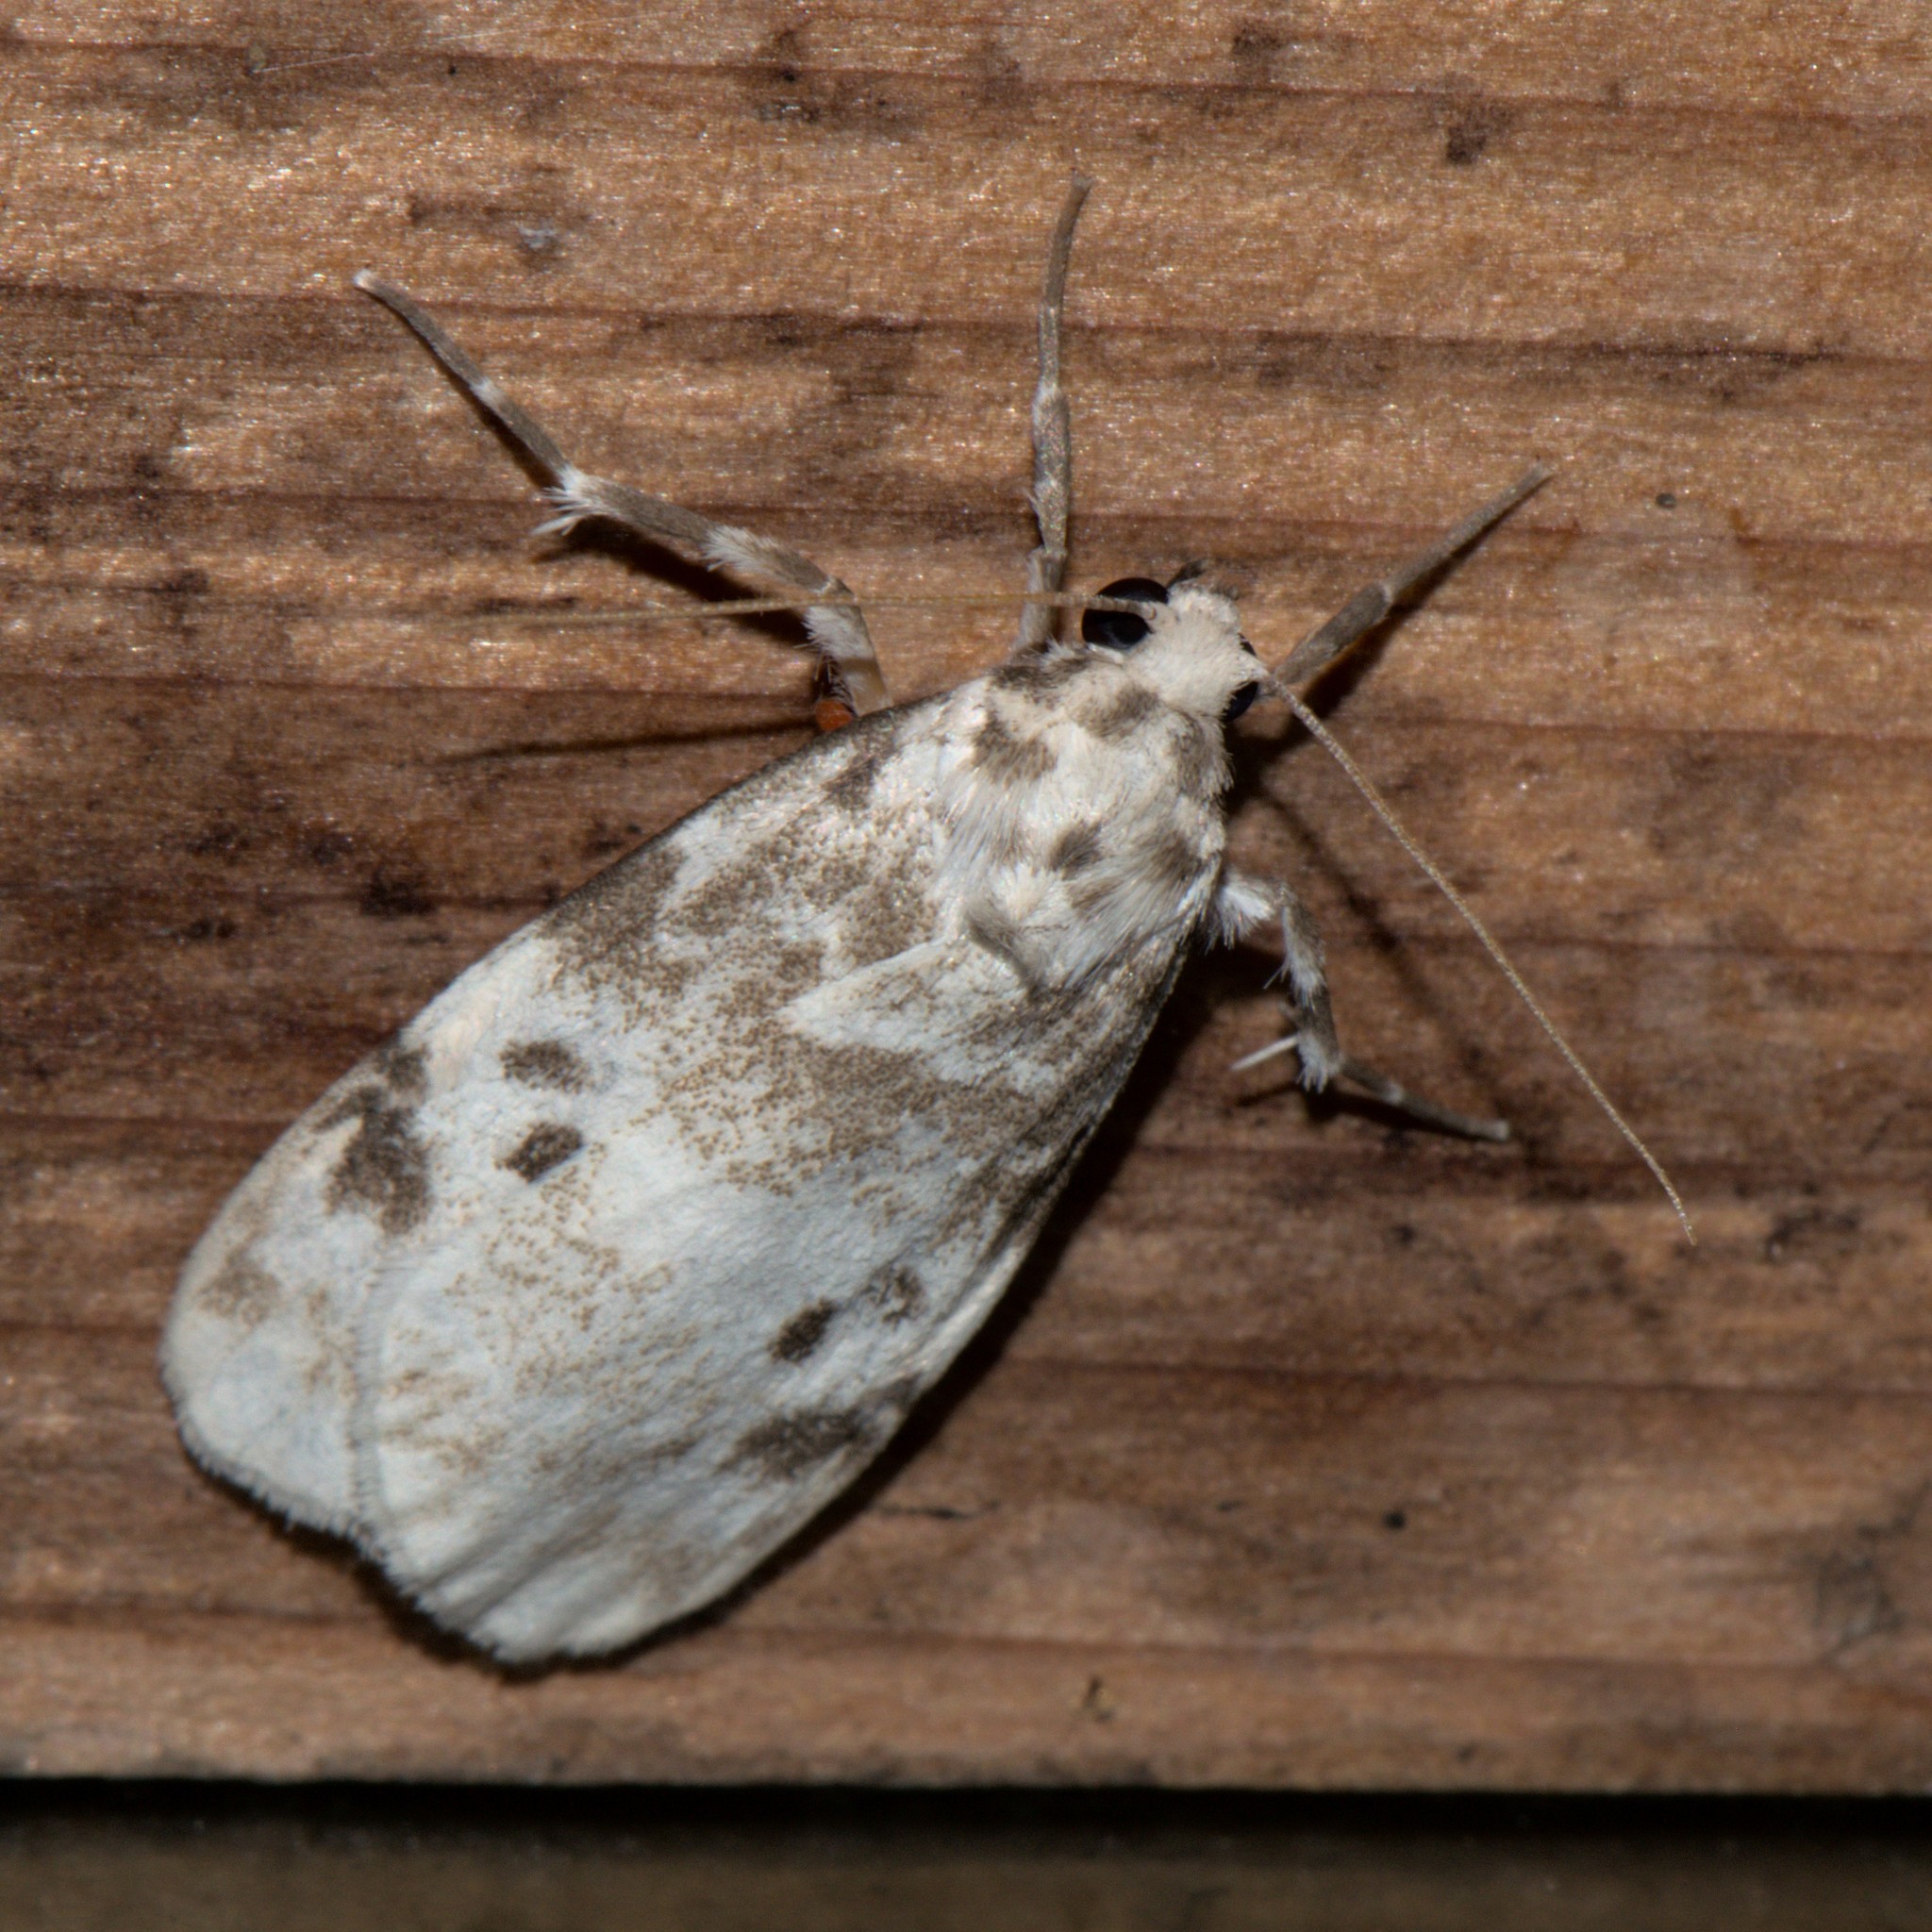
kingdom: Animalia
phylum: Arthropoda
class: Insecta
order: Lepidoptera
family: Erebidae
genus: Cyana
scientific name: Cyana detrita
